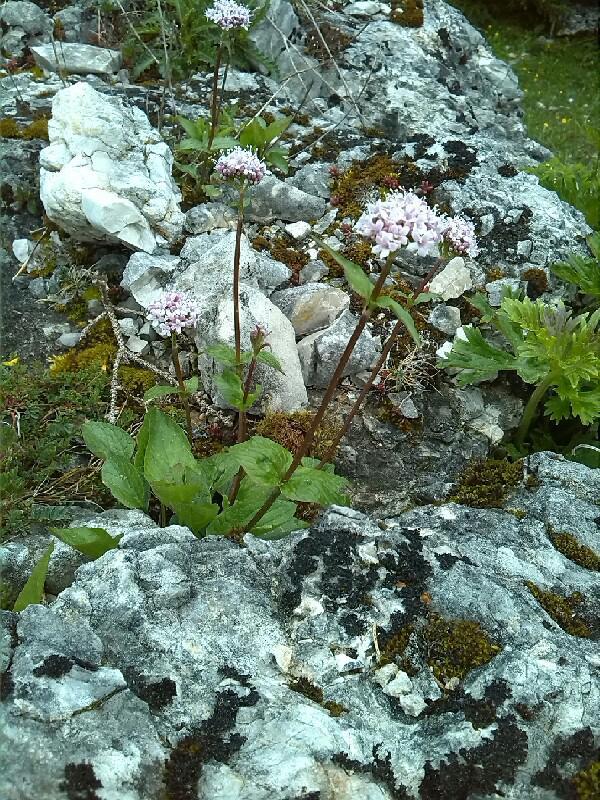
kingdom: Plantae
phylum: Tracheophyta
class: Magnoliopsida
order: Dipsacales
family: Caprifoliaceae
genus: Valeriana
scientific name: Valeriana montana
